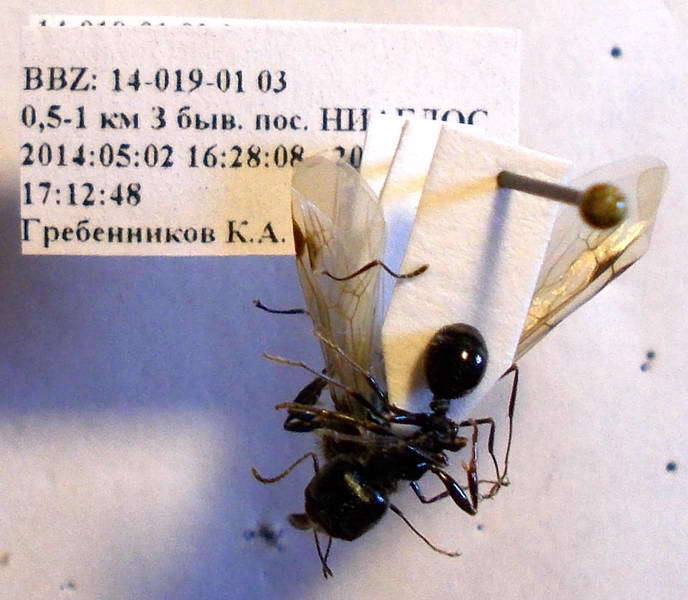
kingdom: Animalia
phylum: Arthropoda
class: Insecta
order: Hymenoptera
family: Formicidae
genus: Messor
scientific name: Messor structor
